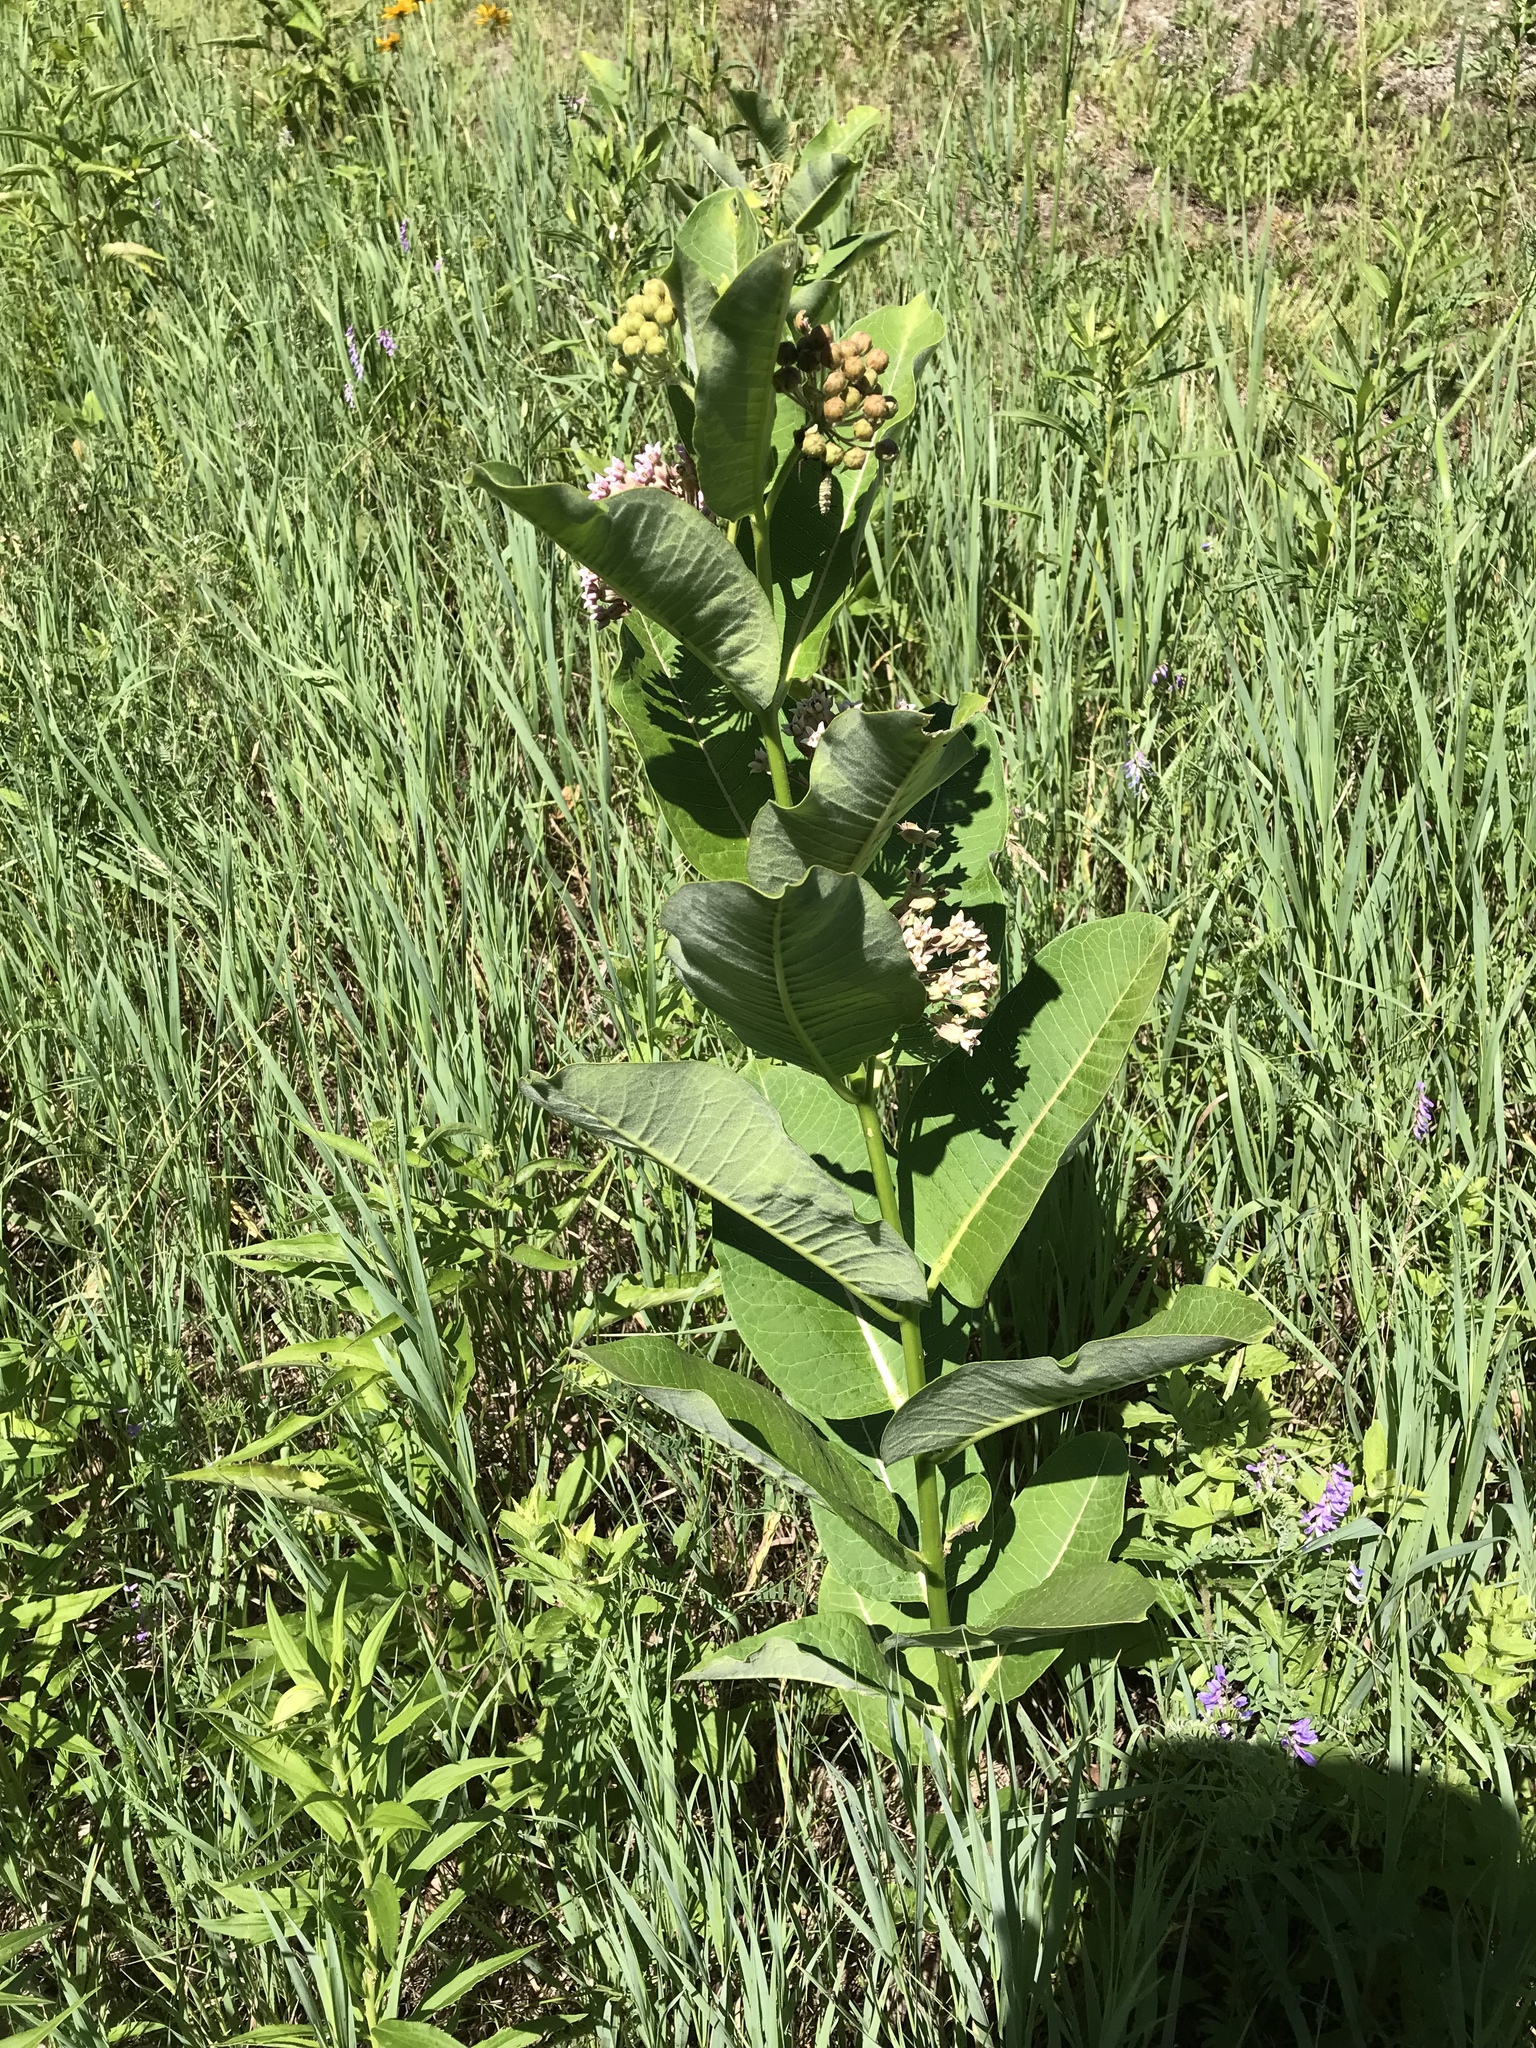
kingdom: Plantae
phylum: Tracheophyta
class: Magnoliopsida
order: Gentianales
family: Apocynaceae
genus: Asclepias
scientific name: Asclepias syriaca
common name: Common milkweed
